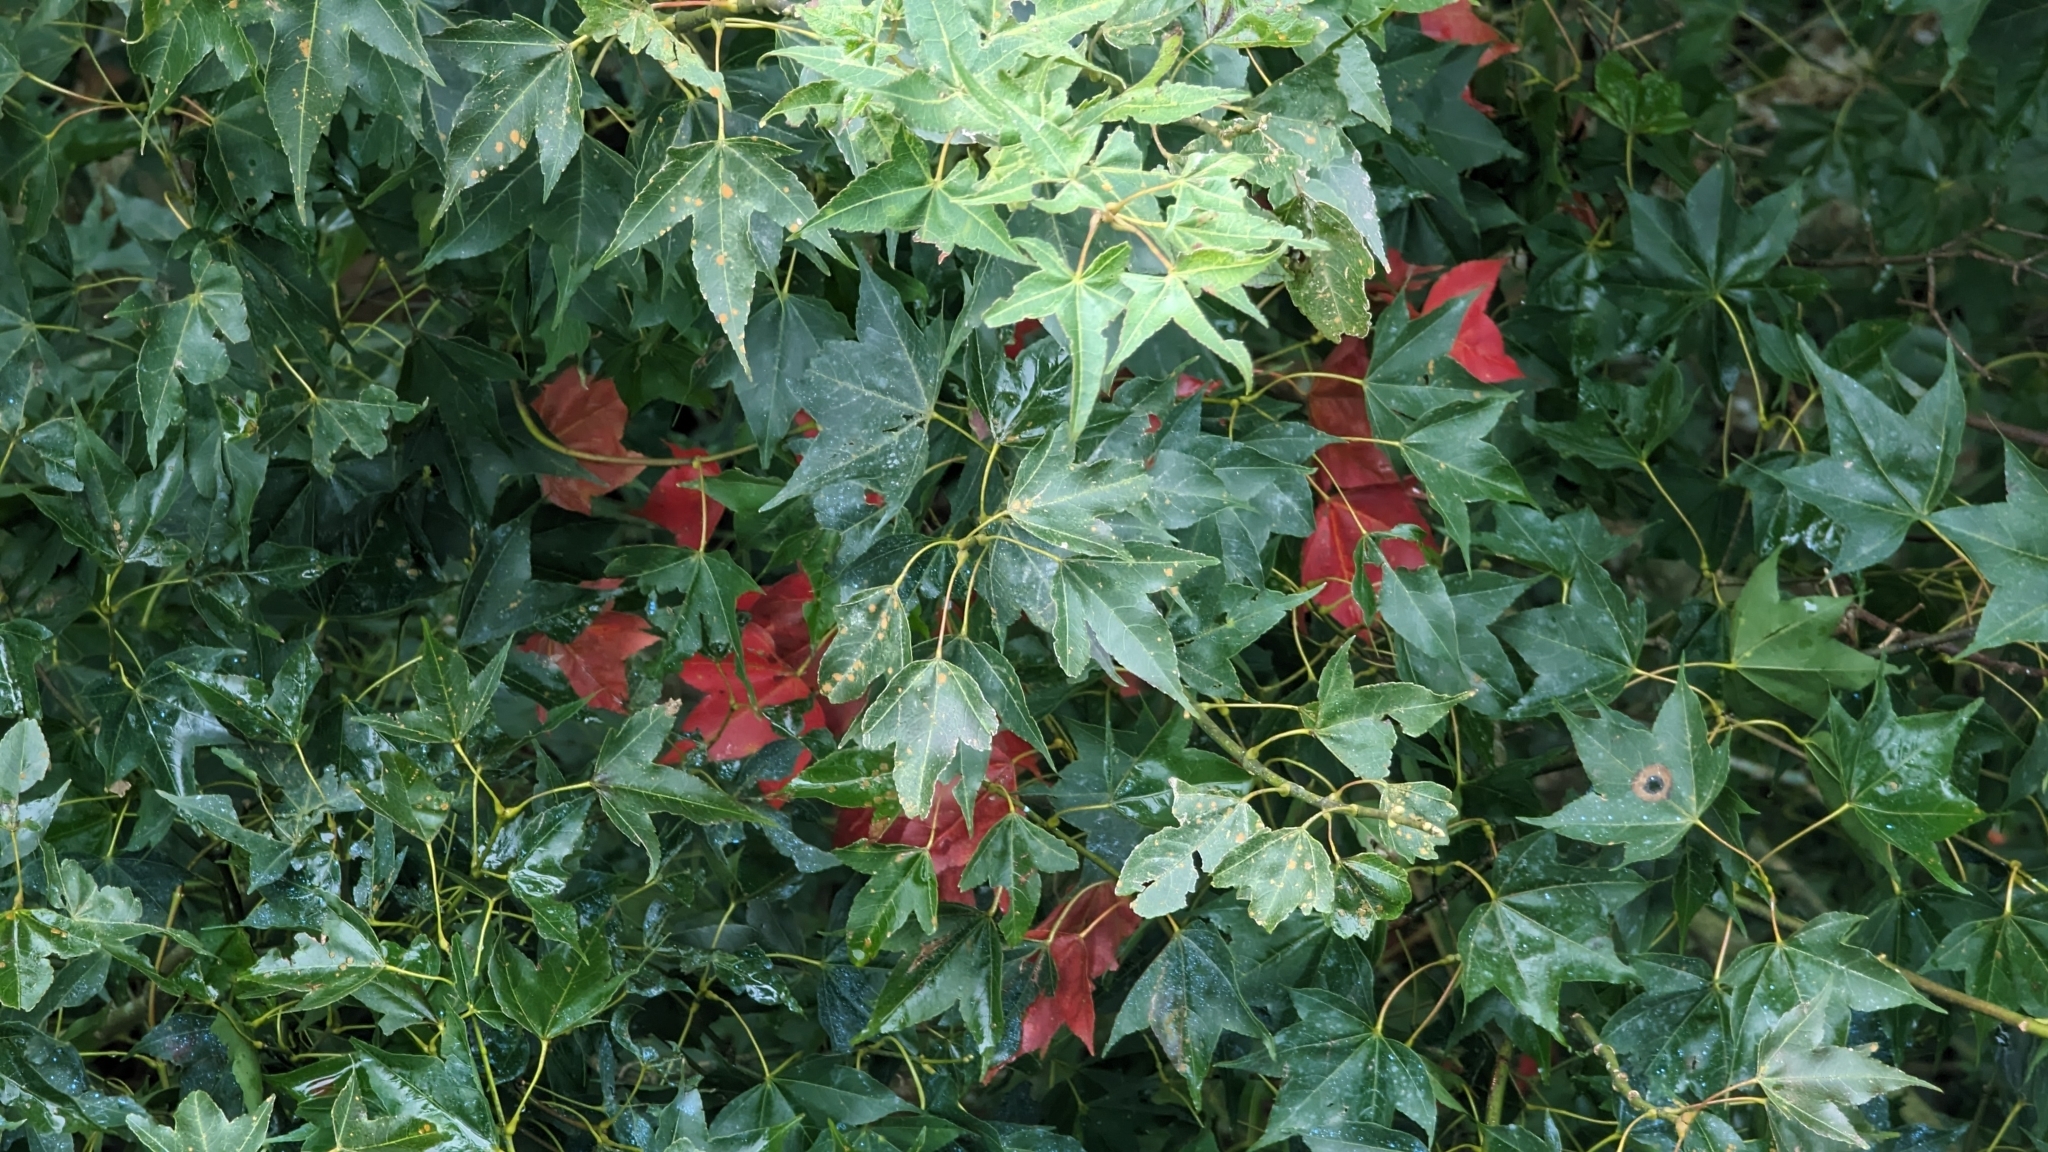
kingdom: Plantae
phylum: Tracheophyta
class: Magnoliopsida
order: Sapindales
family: Sapindaceae
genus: Acer
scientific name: Acer serrulatum
